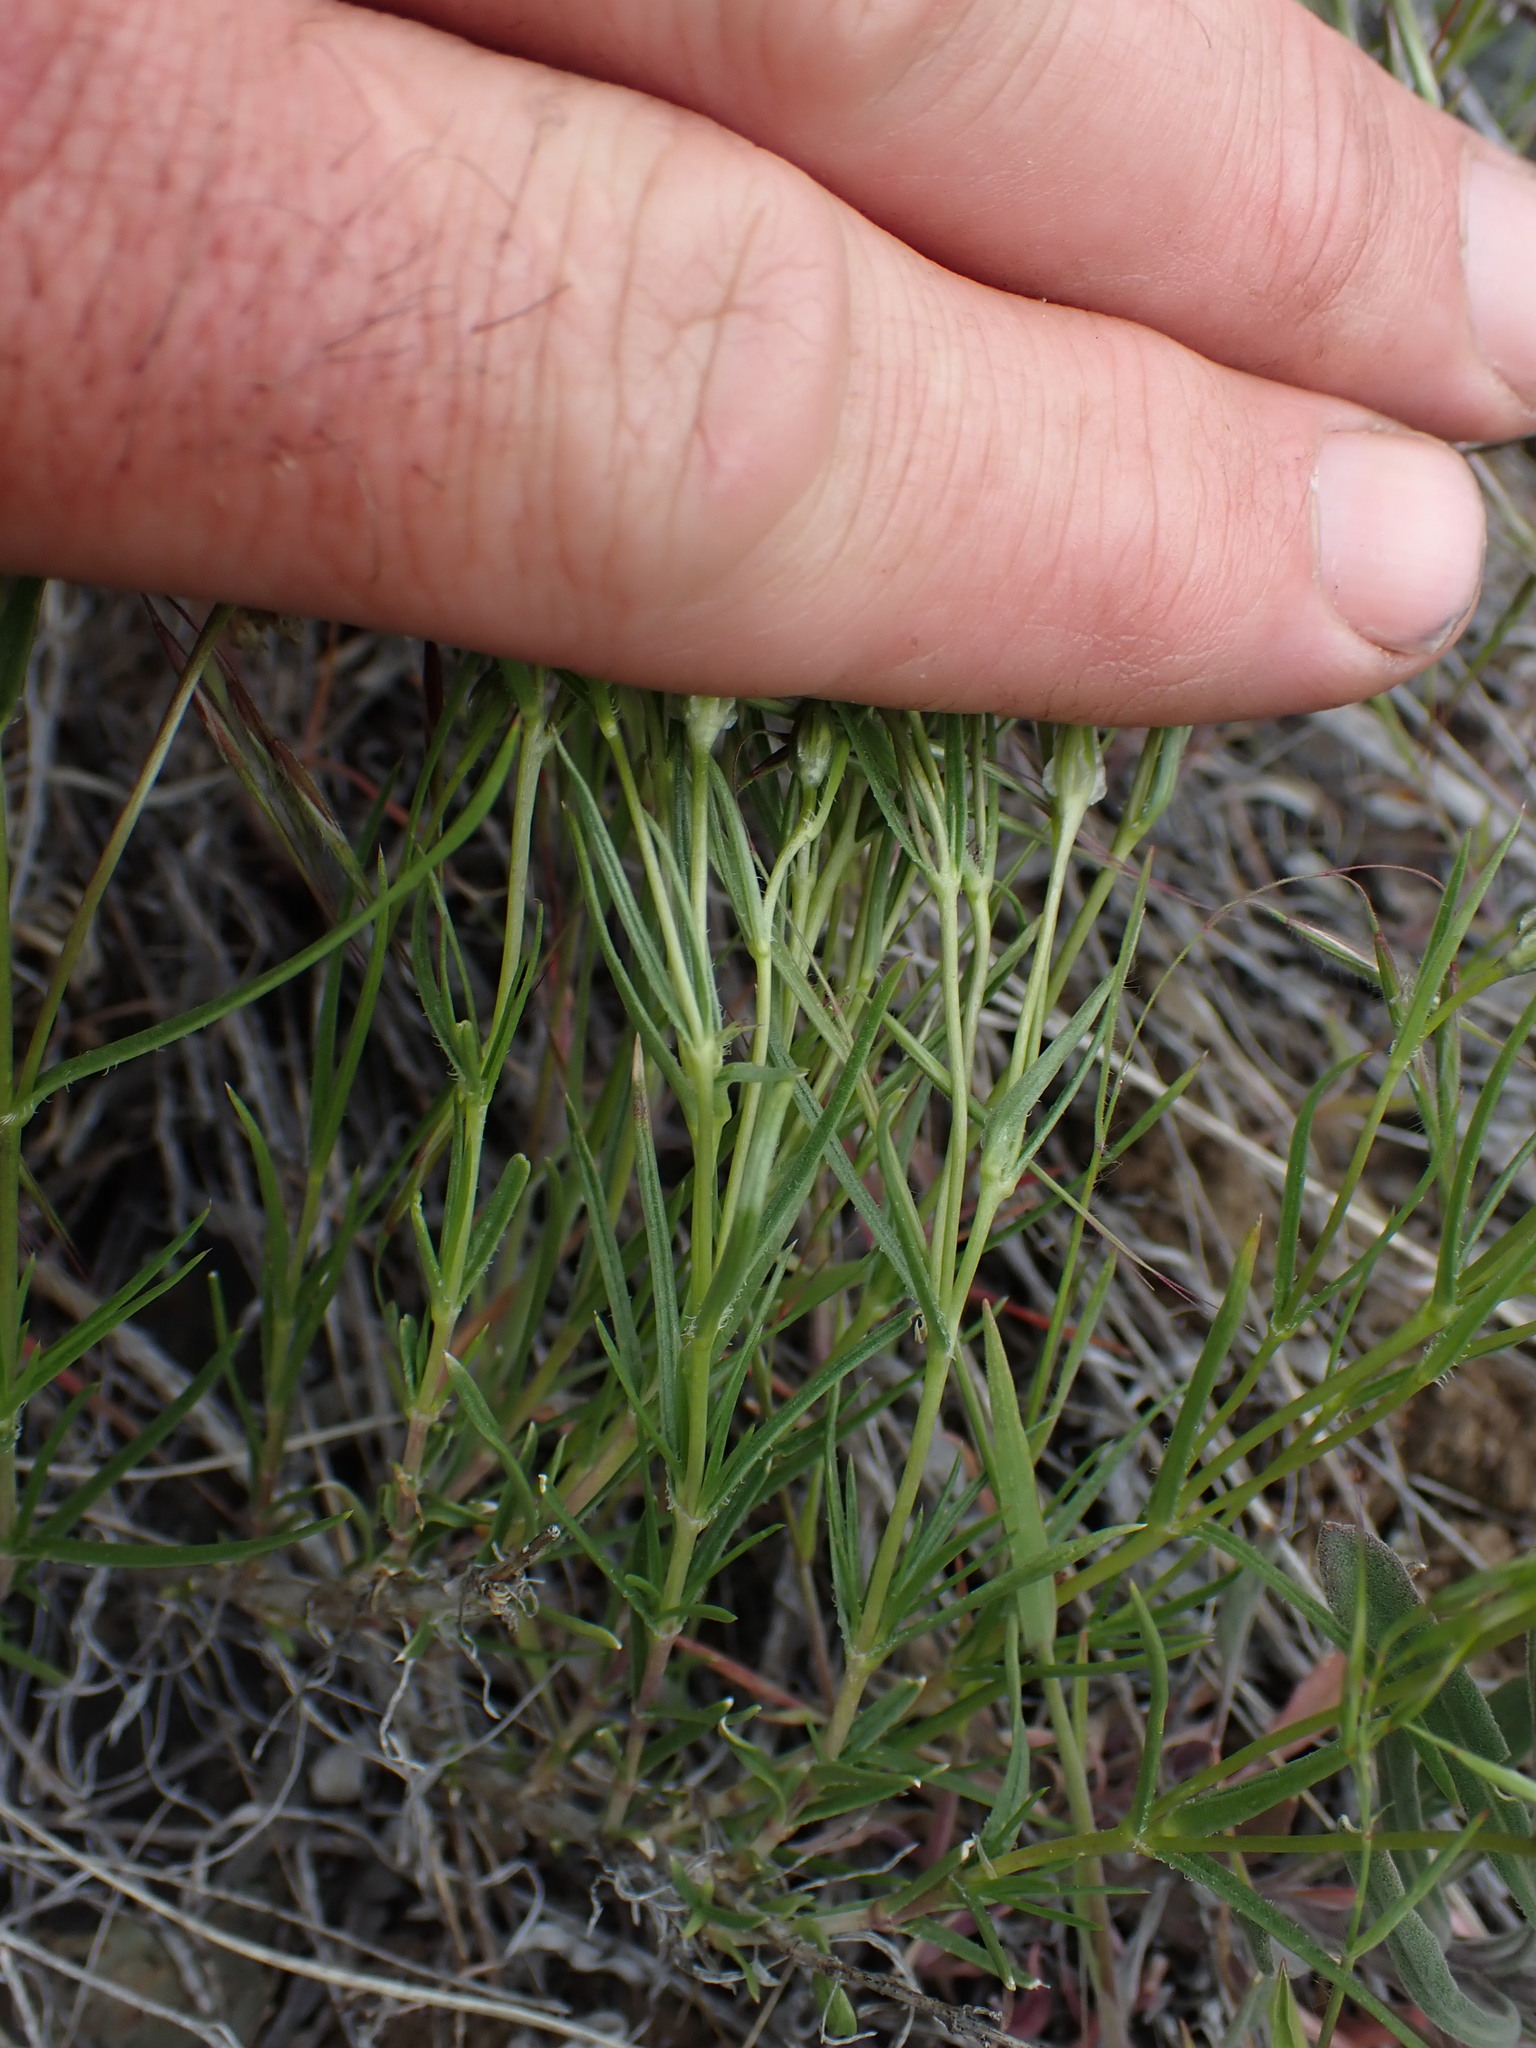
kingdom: Plantae
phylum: Tracheophyta
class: Magnoliopsida
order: Ericales
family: Polemoniaceae
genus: Phlox
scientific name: Phlox longifolia
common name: Longleaf phlox
